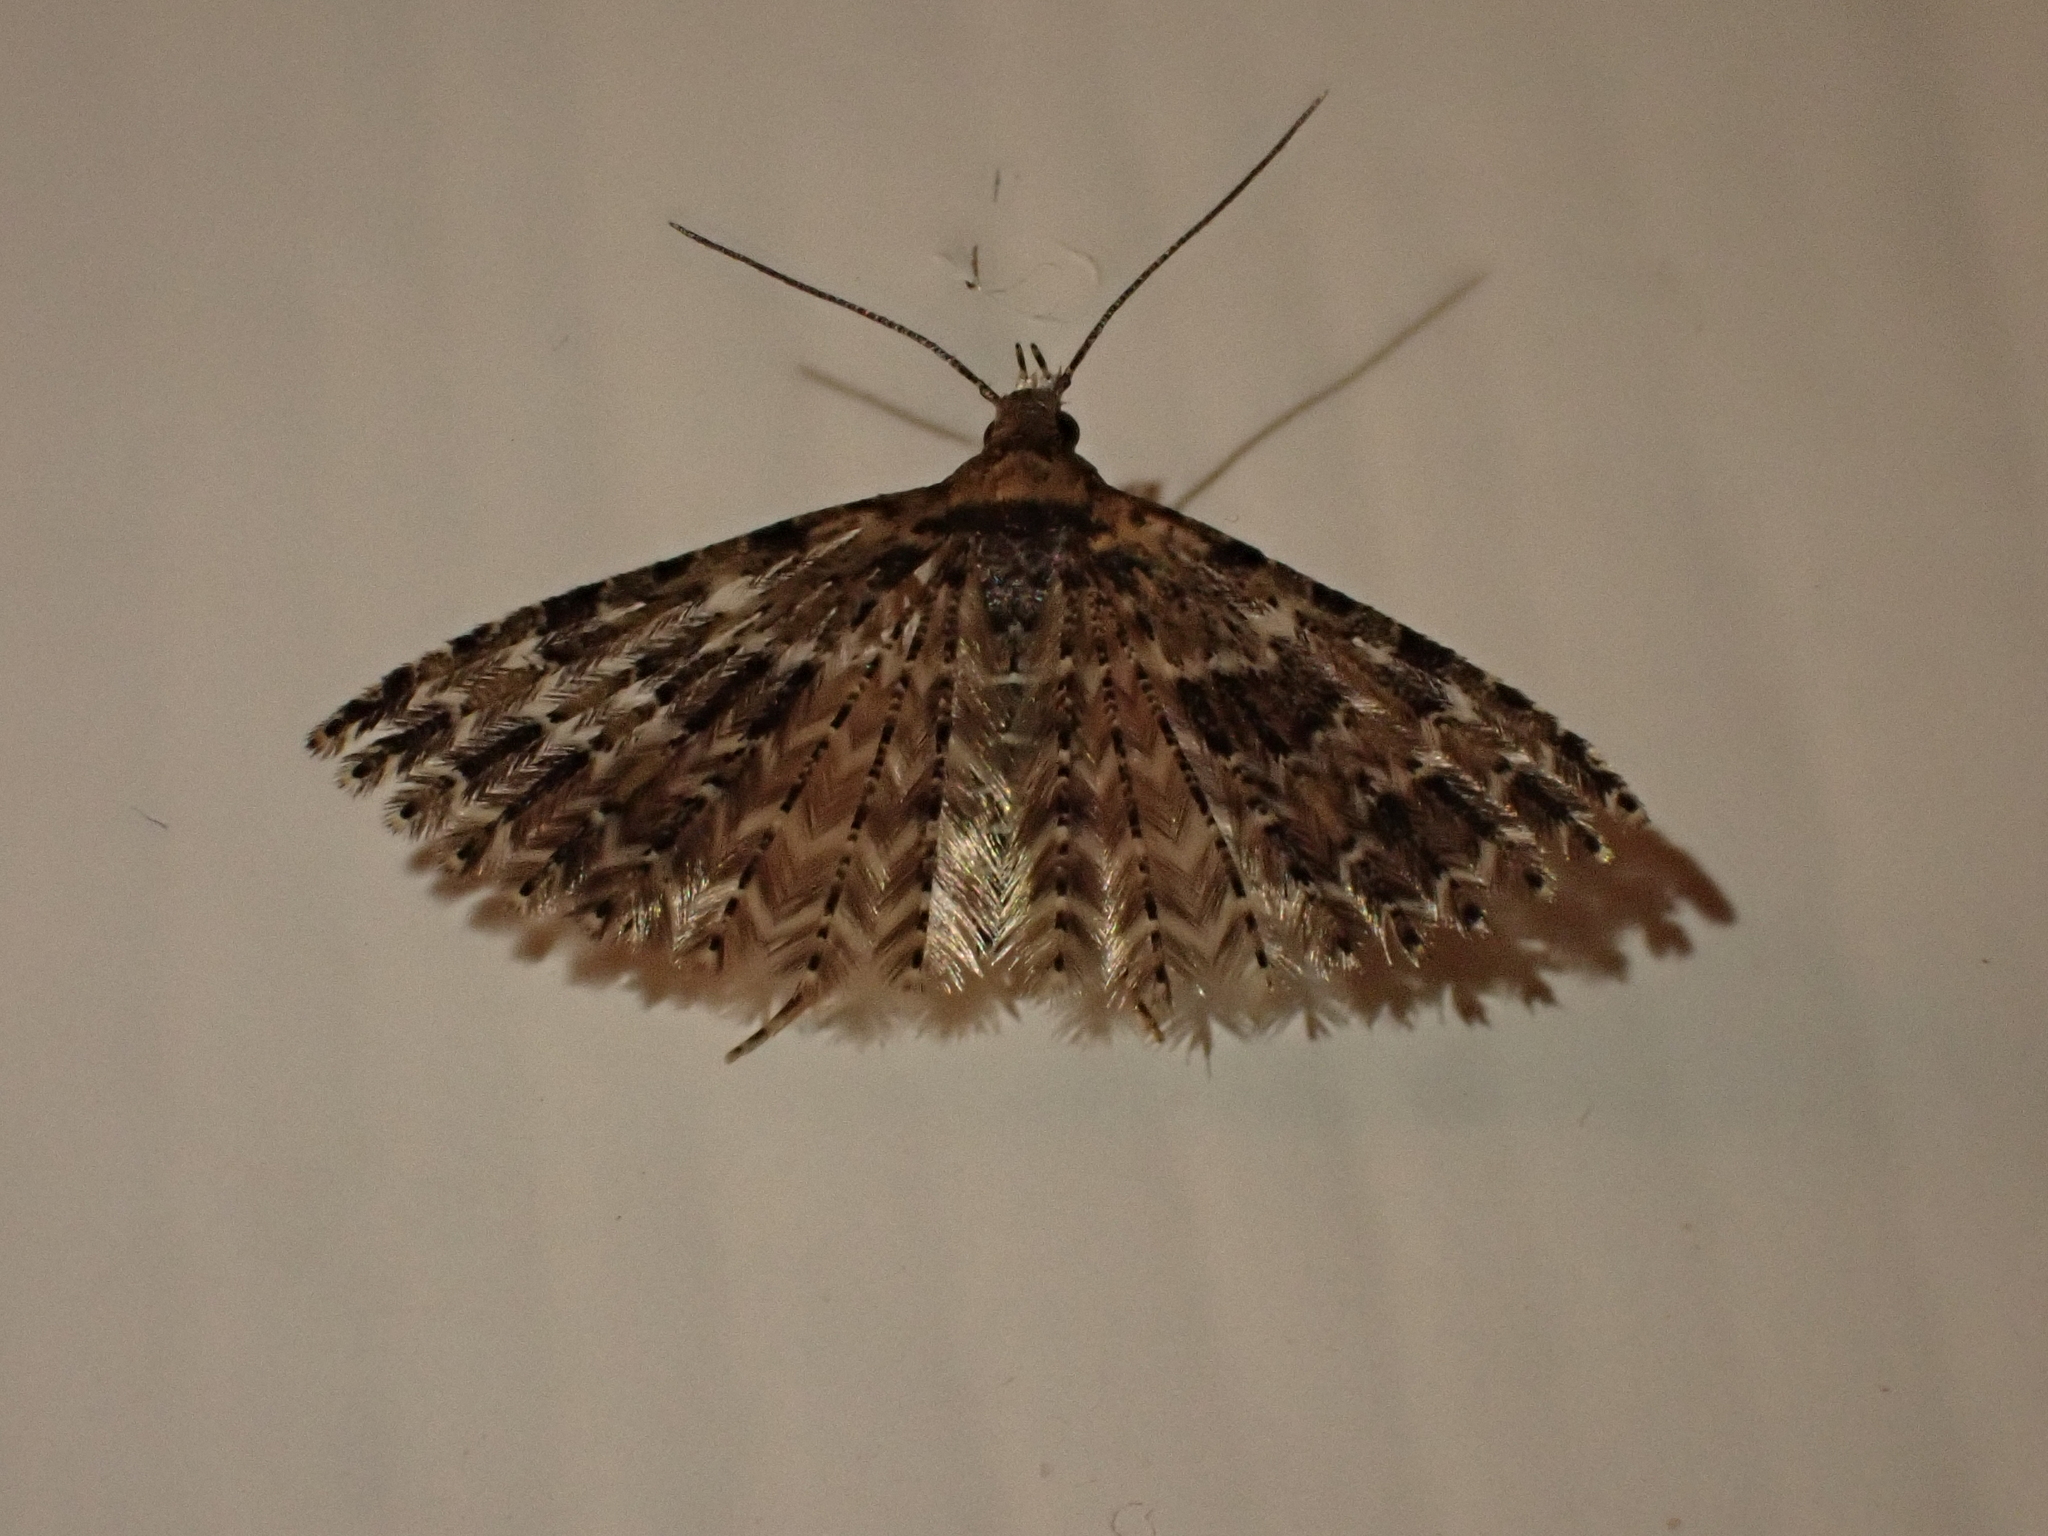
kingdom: Animalia
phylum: Arthropoda
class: Insecta
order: Lepidoptera
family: Alucitidae
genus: Alucita
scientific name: Alucita montana
